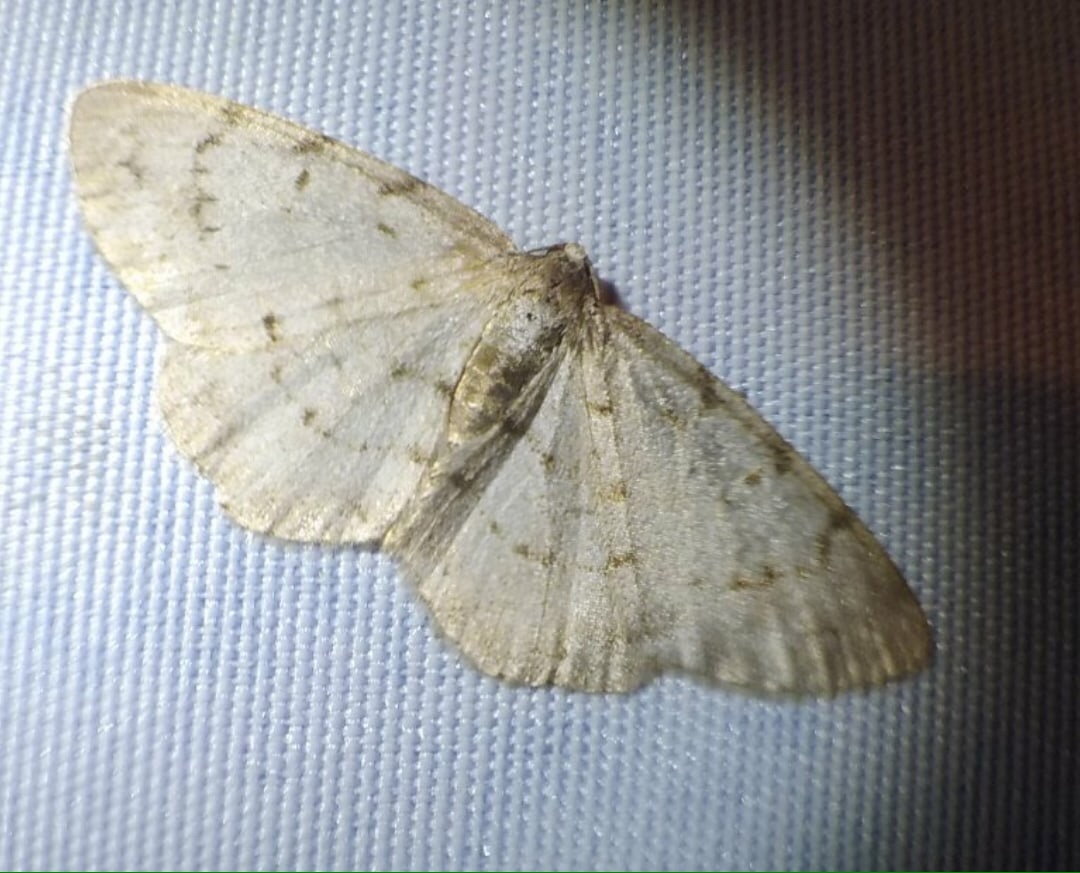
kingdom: Animalia
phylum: Arthropoda
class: Insecta
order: Lepidoptera
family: Geometridae
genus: Aethalura
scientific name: Aethalura punctulata
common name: Grey birch
